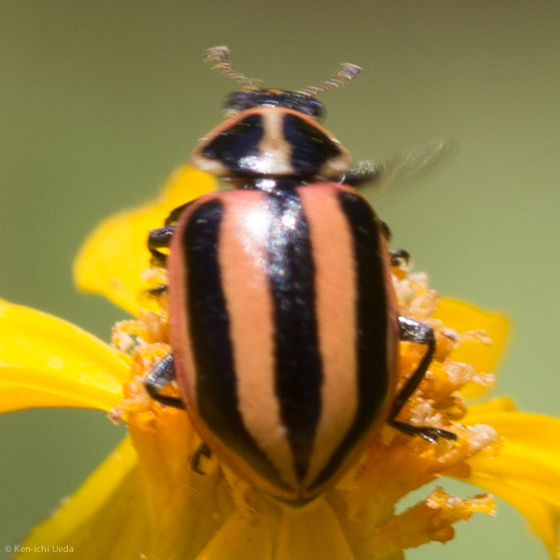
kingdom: Animalia
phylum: Arthropoda
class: Insecta
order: Coleoptera
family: Coccinellidae
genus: Paranaemia
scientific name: Paranaemia vittigera
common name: Ladybird beetle
